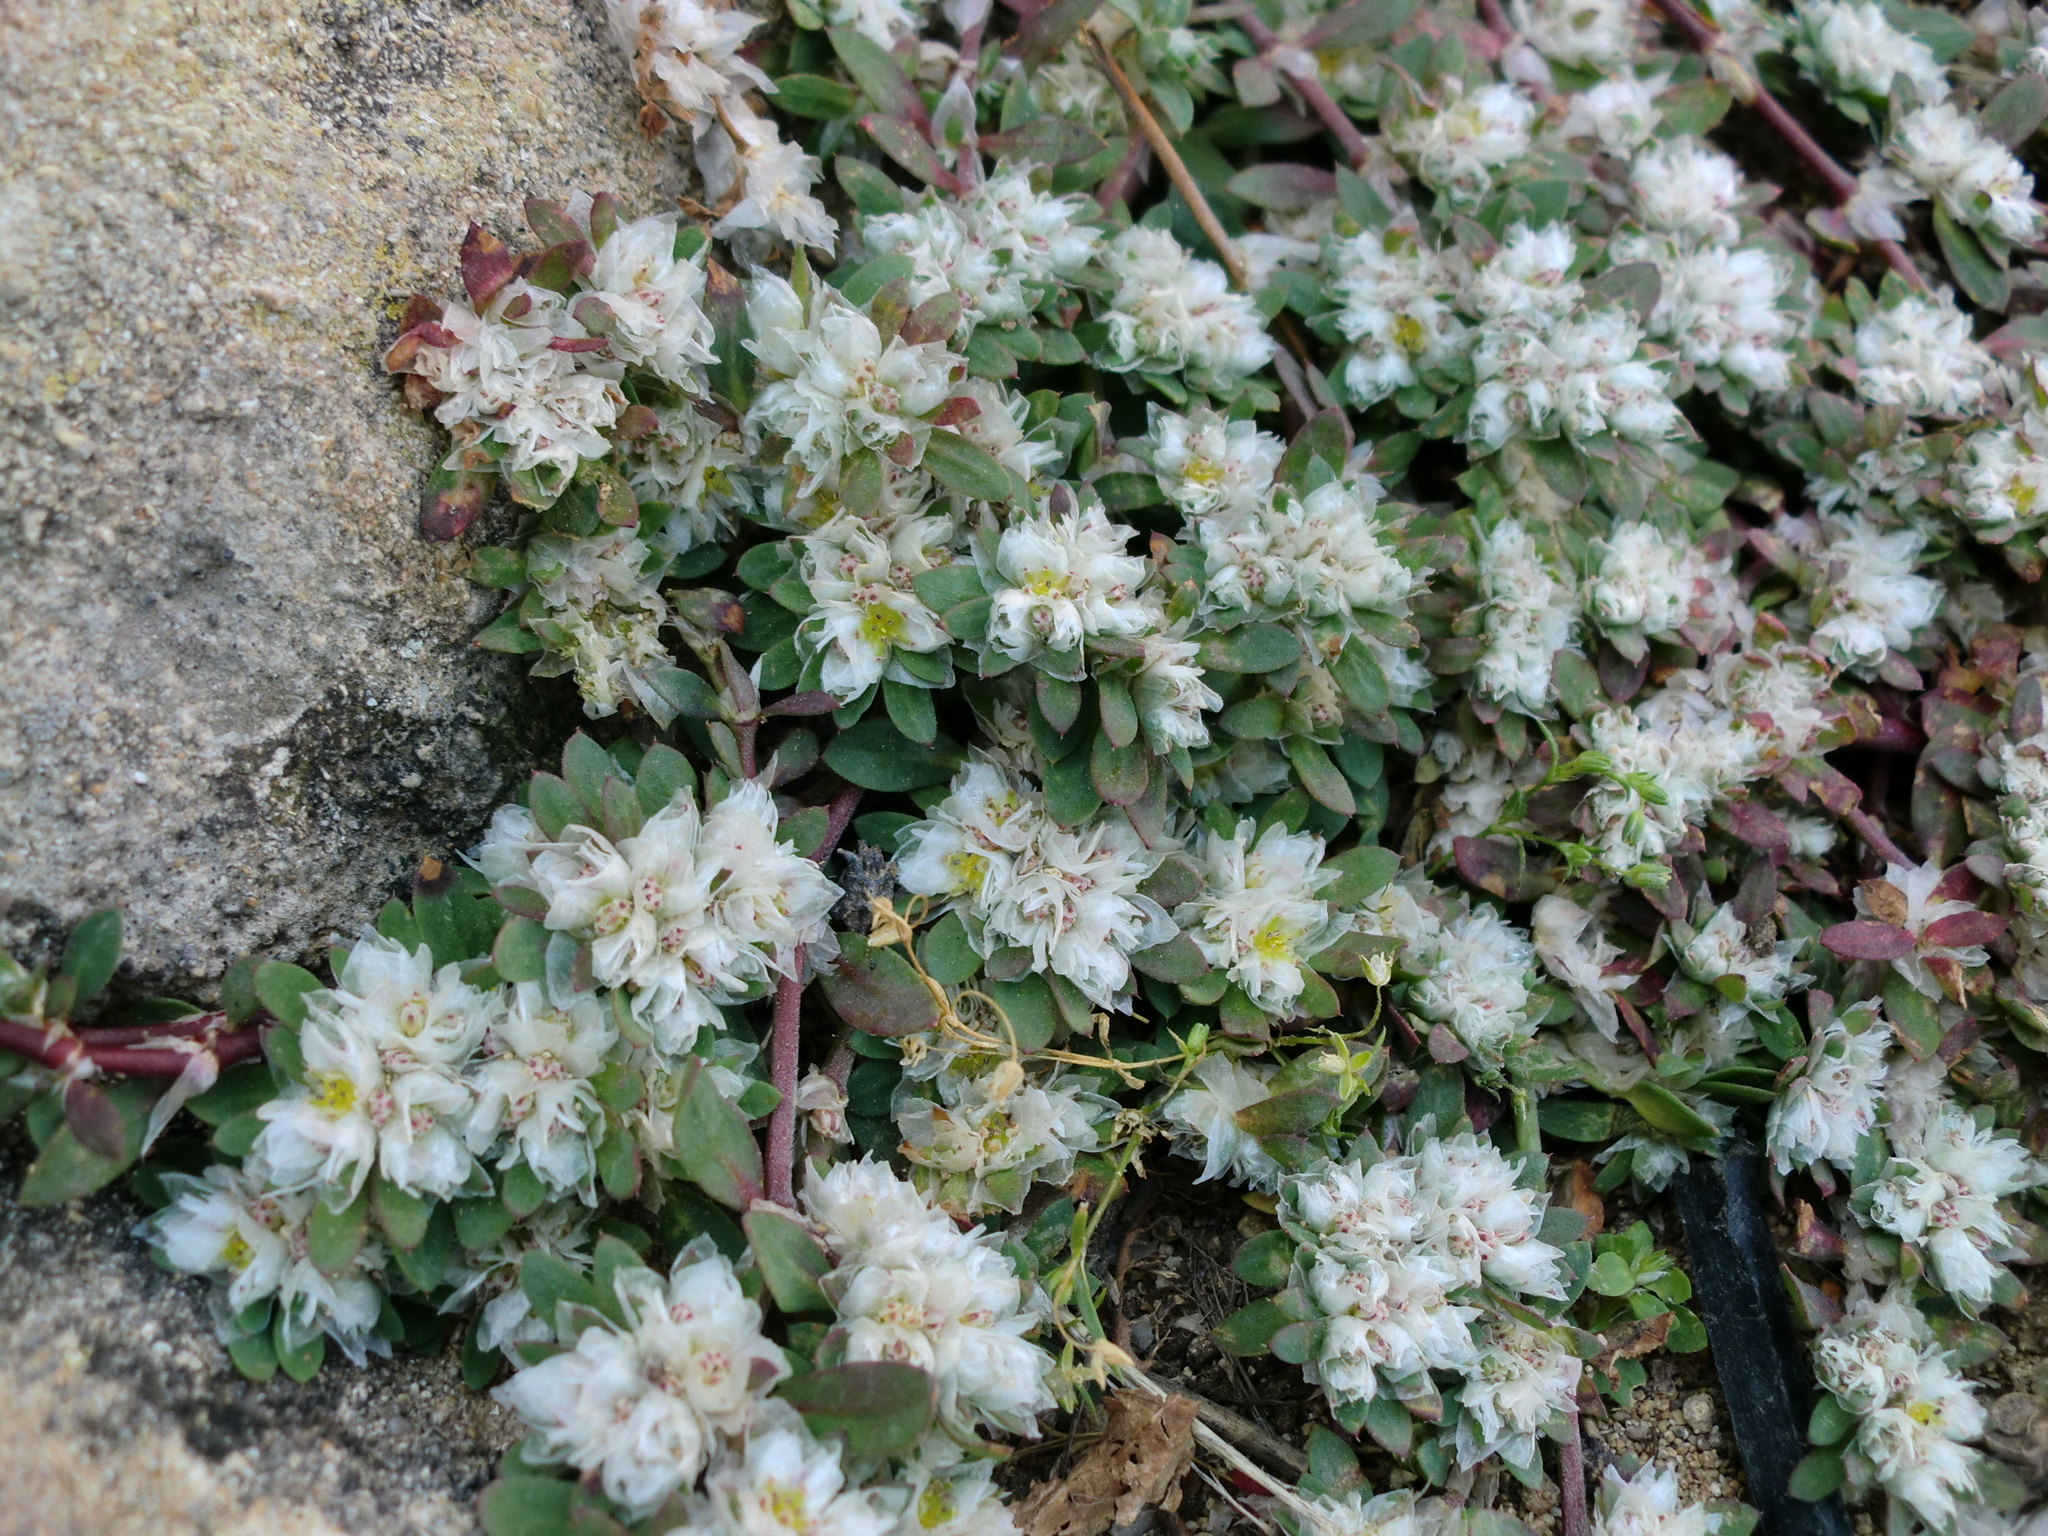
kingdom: Plantae
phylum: Tracheophyta
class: Magnoliopsida
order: Caryophyllales
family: Caryophyllaceae
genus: Paronychia
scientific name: Paronychia argentea
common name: Silver nailroot
